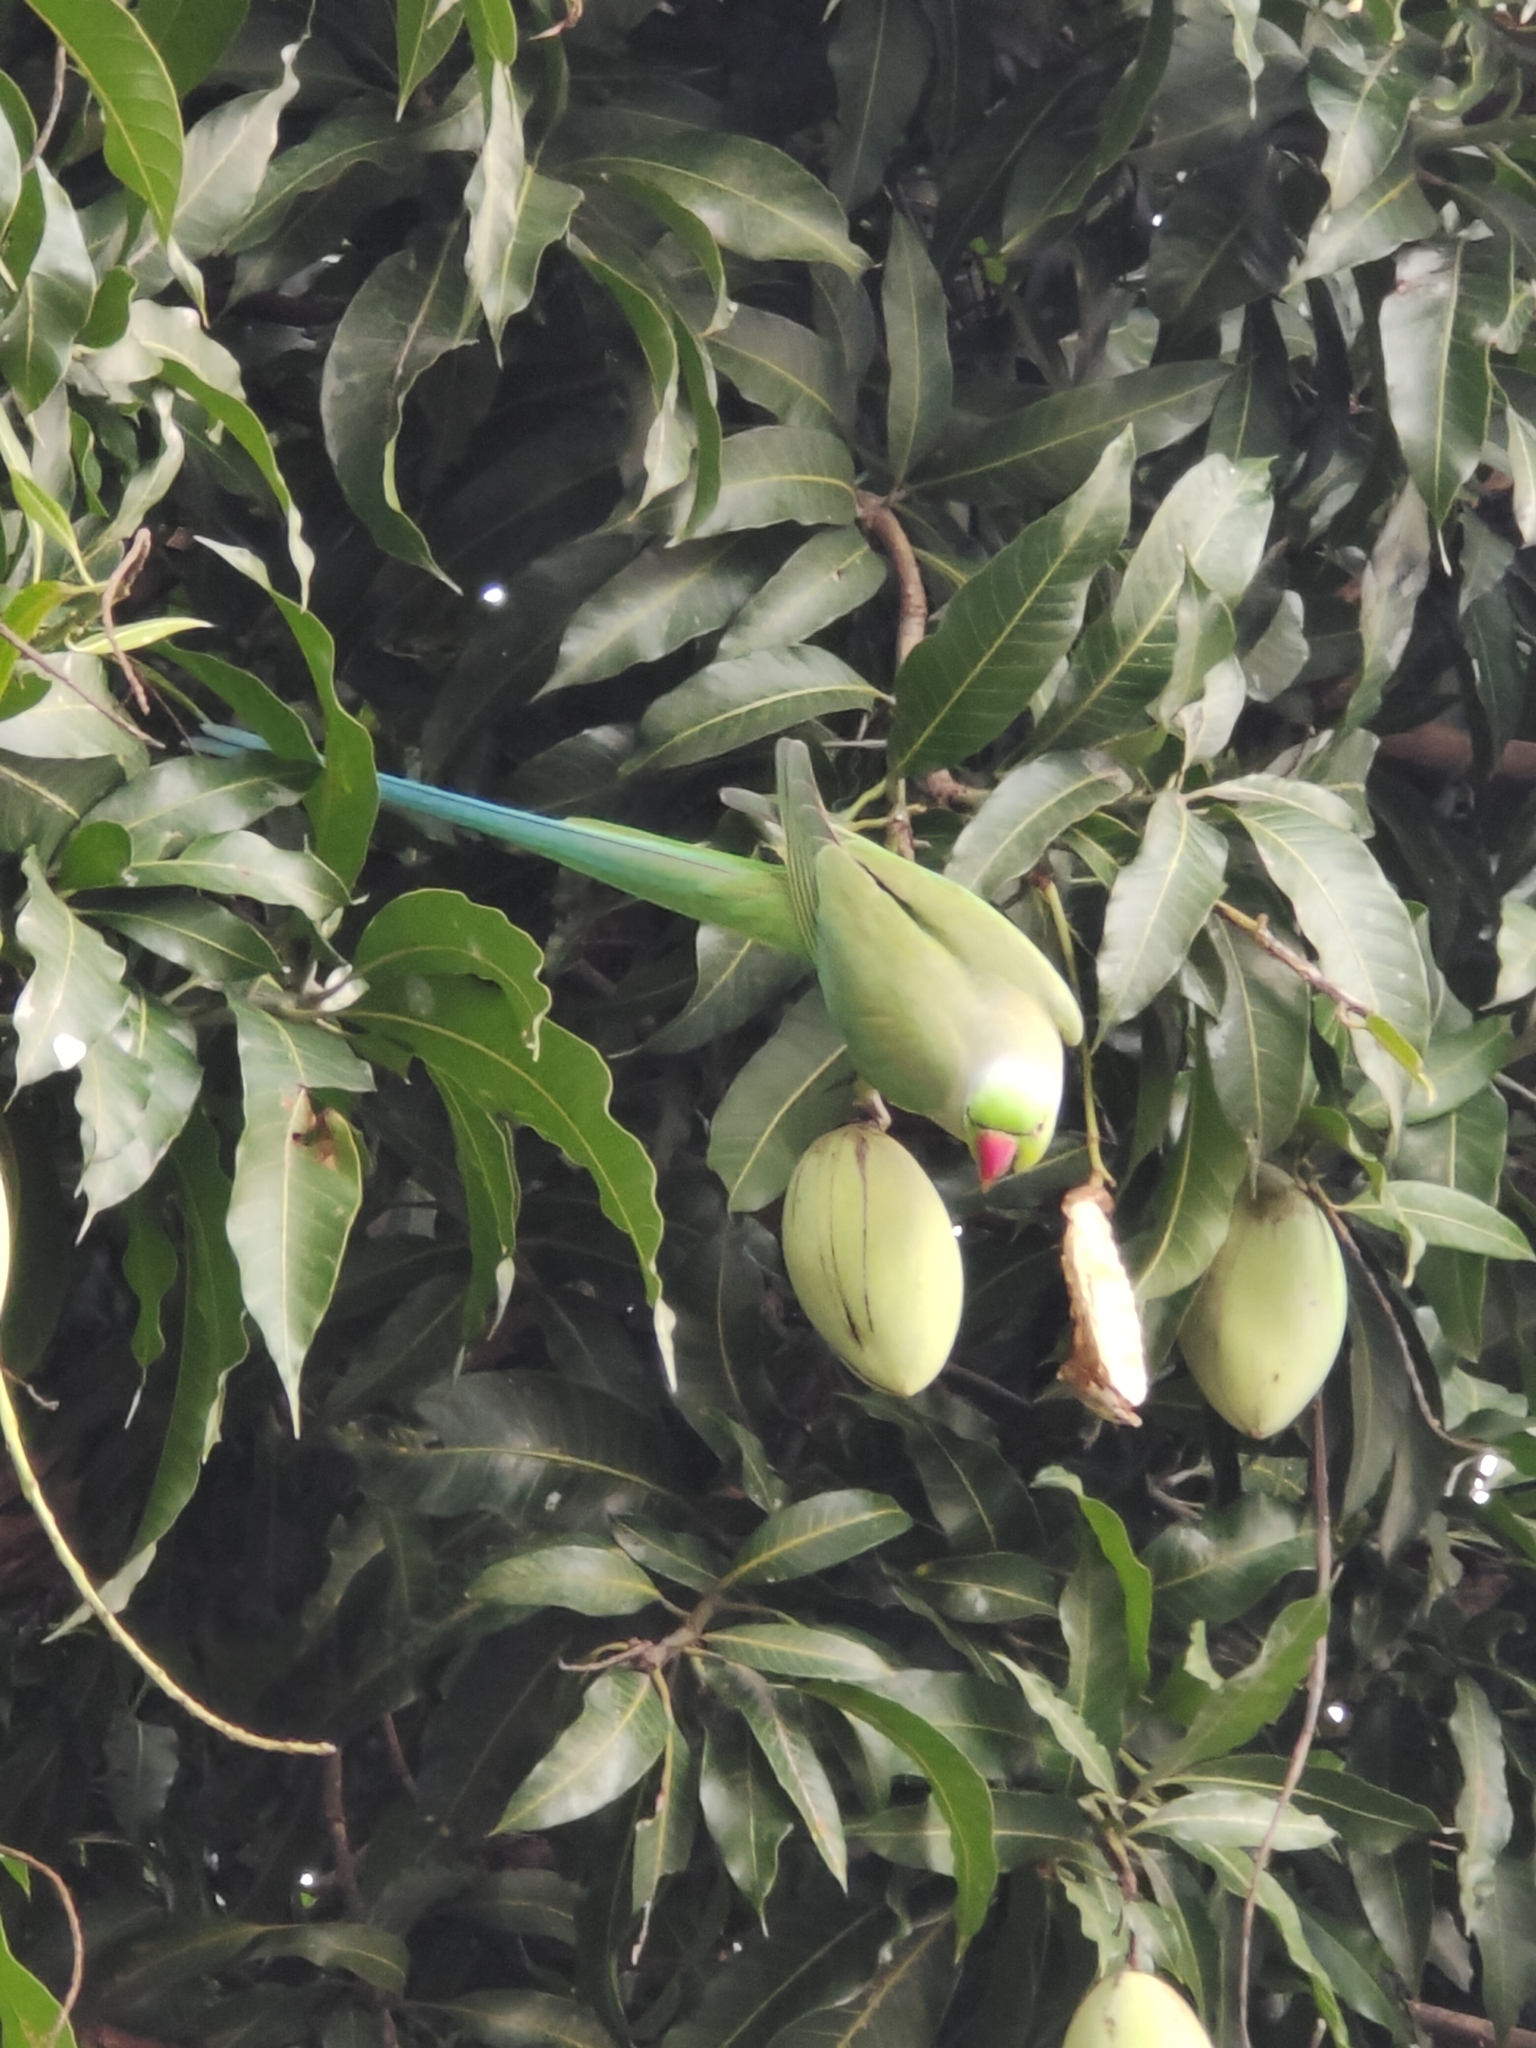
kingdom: Animalia
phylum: Chordata
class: Aves
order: Psittaciformes
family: Psittacidae
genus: Psittacula
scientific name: Psittacula krameri
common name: Rose-ringed parakeet
